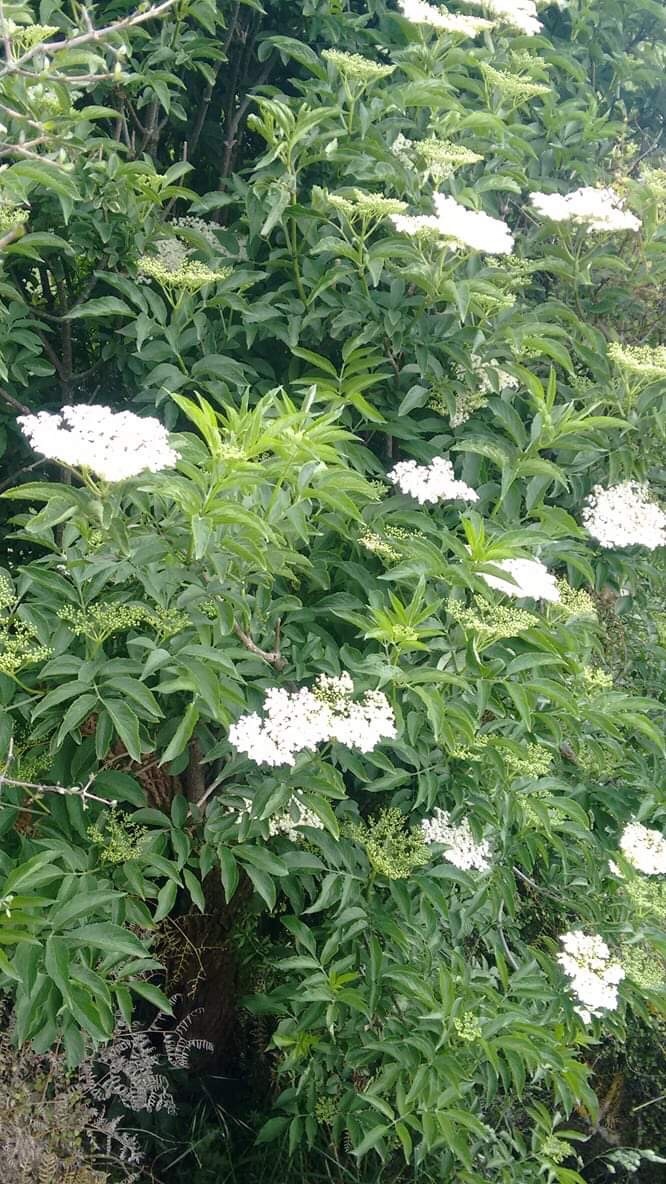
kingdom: Plantae
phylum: Tracheophyta
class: Magnoliopsida
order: Dipsacales
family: Viburnaceae
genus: Sambucus
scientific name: Sambucus nigra
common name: Elder
